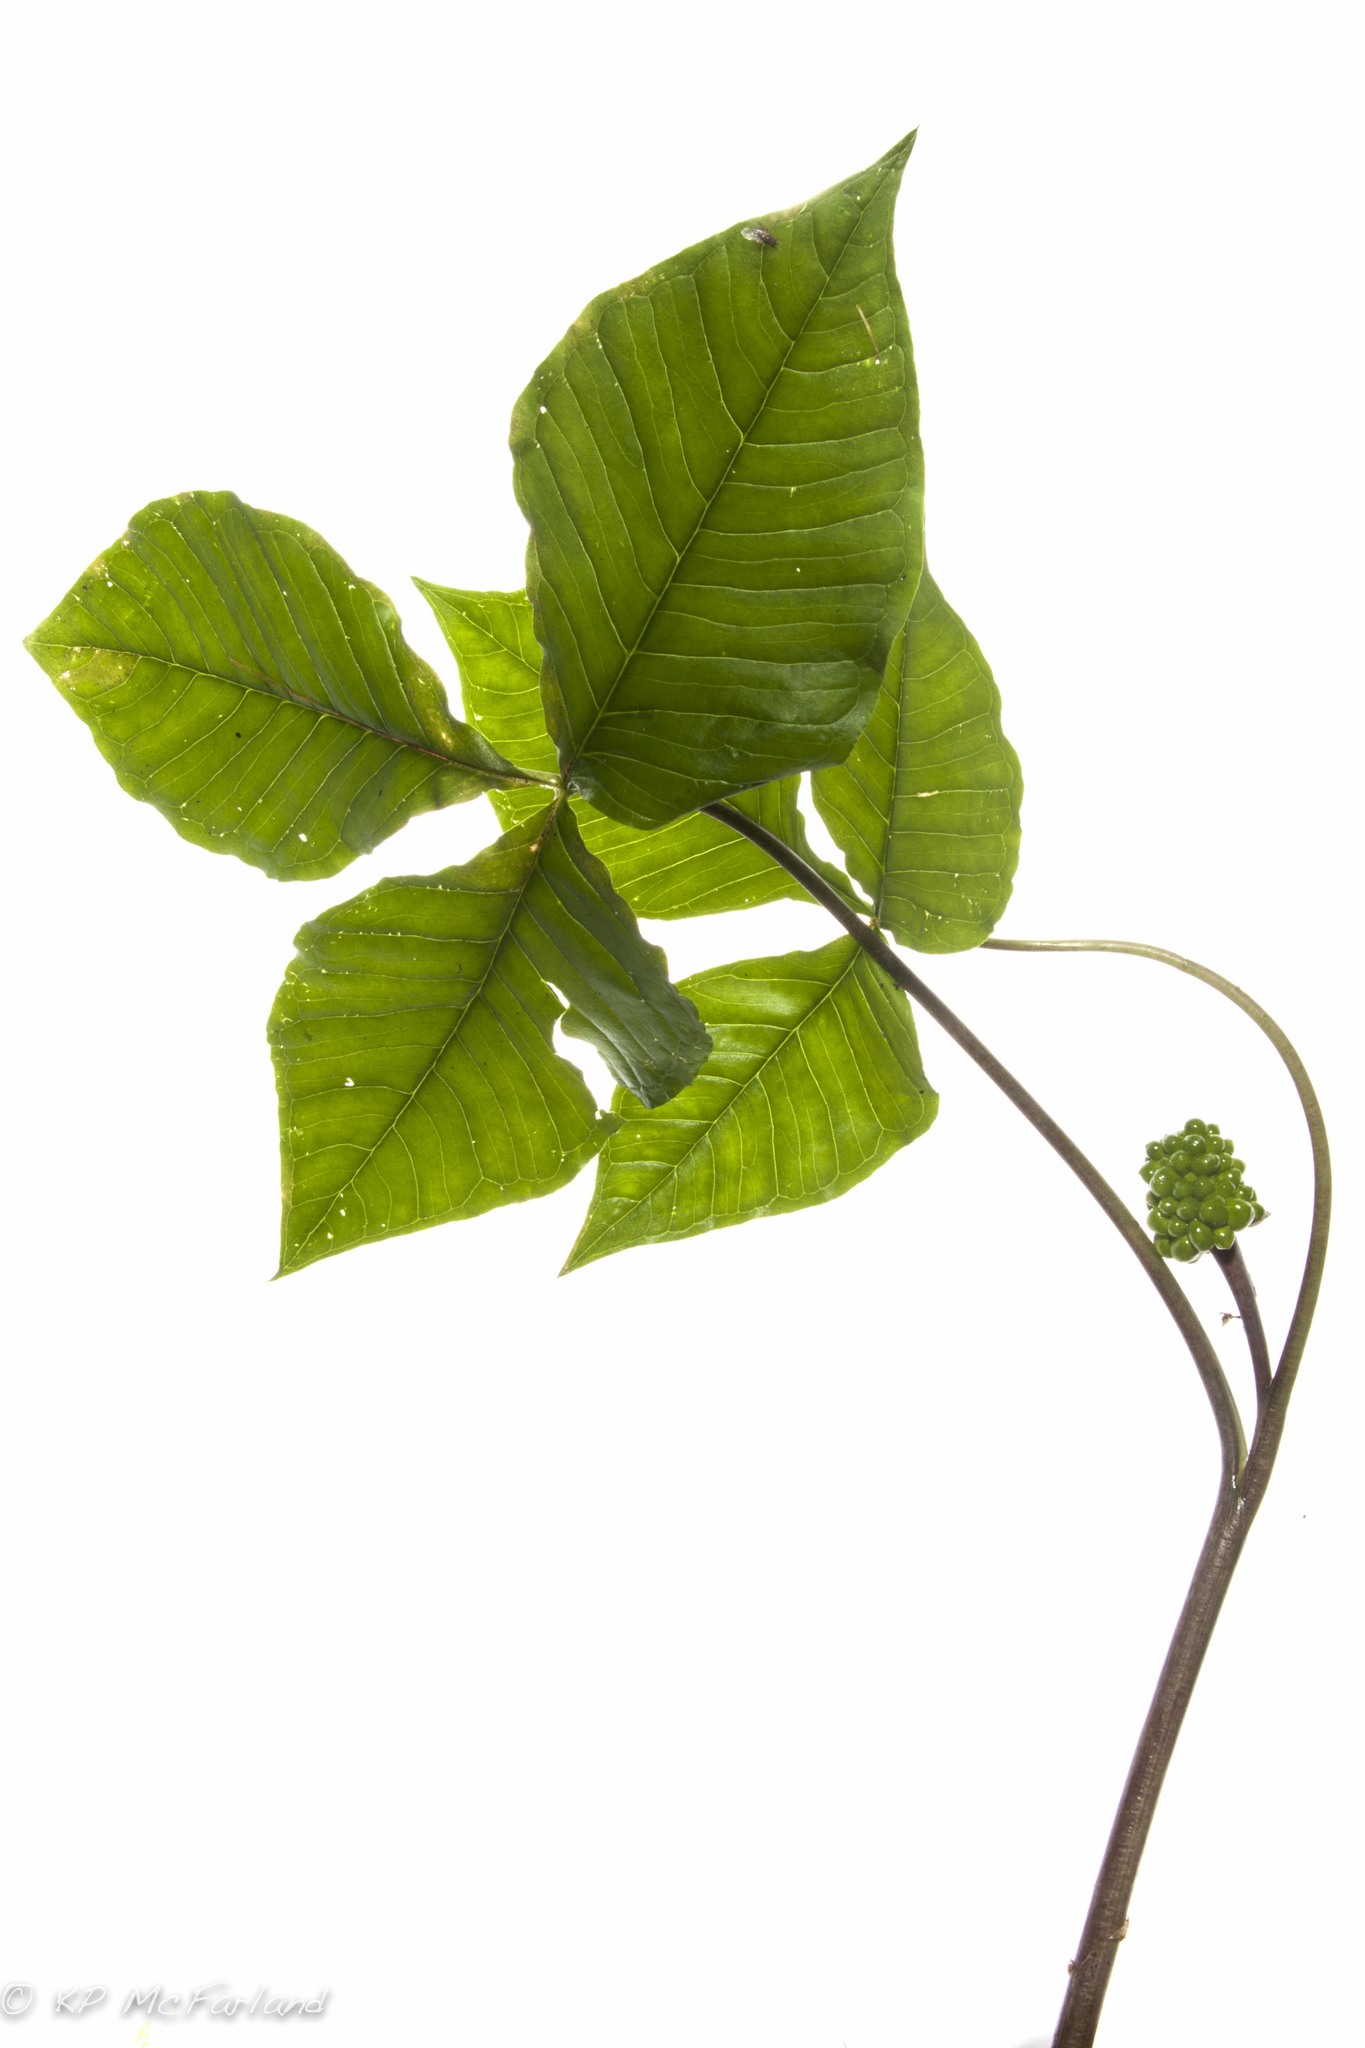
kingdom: Plantae
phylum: Tracheophyta
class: Liliopsida
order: Alismatales
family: Araceae
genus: Arisaema
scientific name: Arisaema triphyllum
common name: Jack-in-the-pulpit
